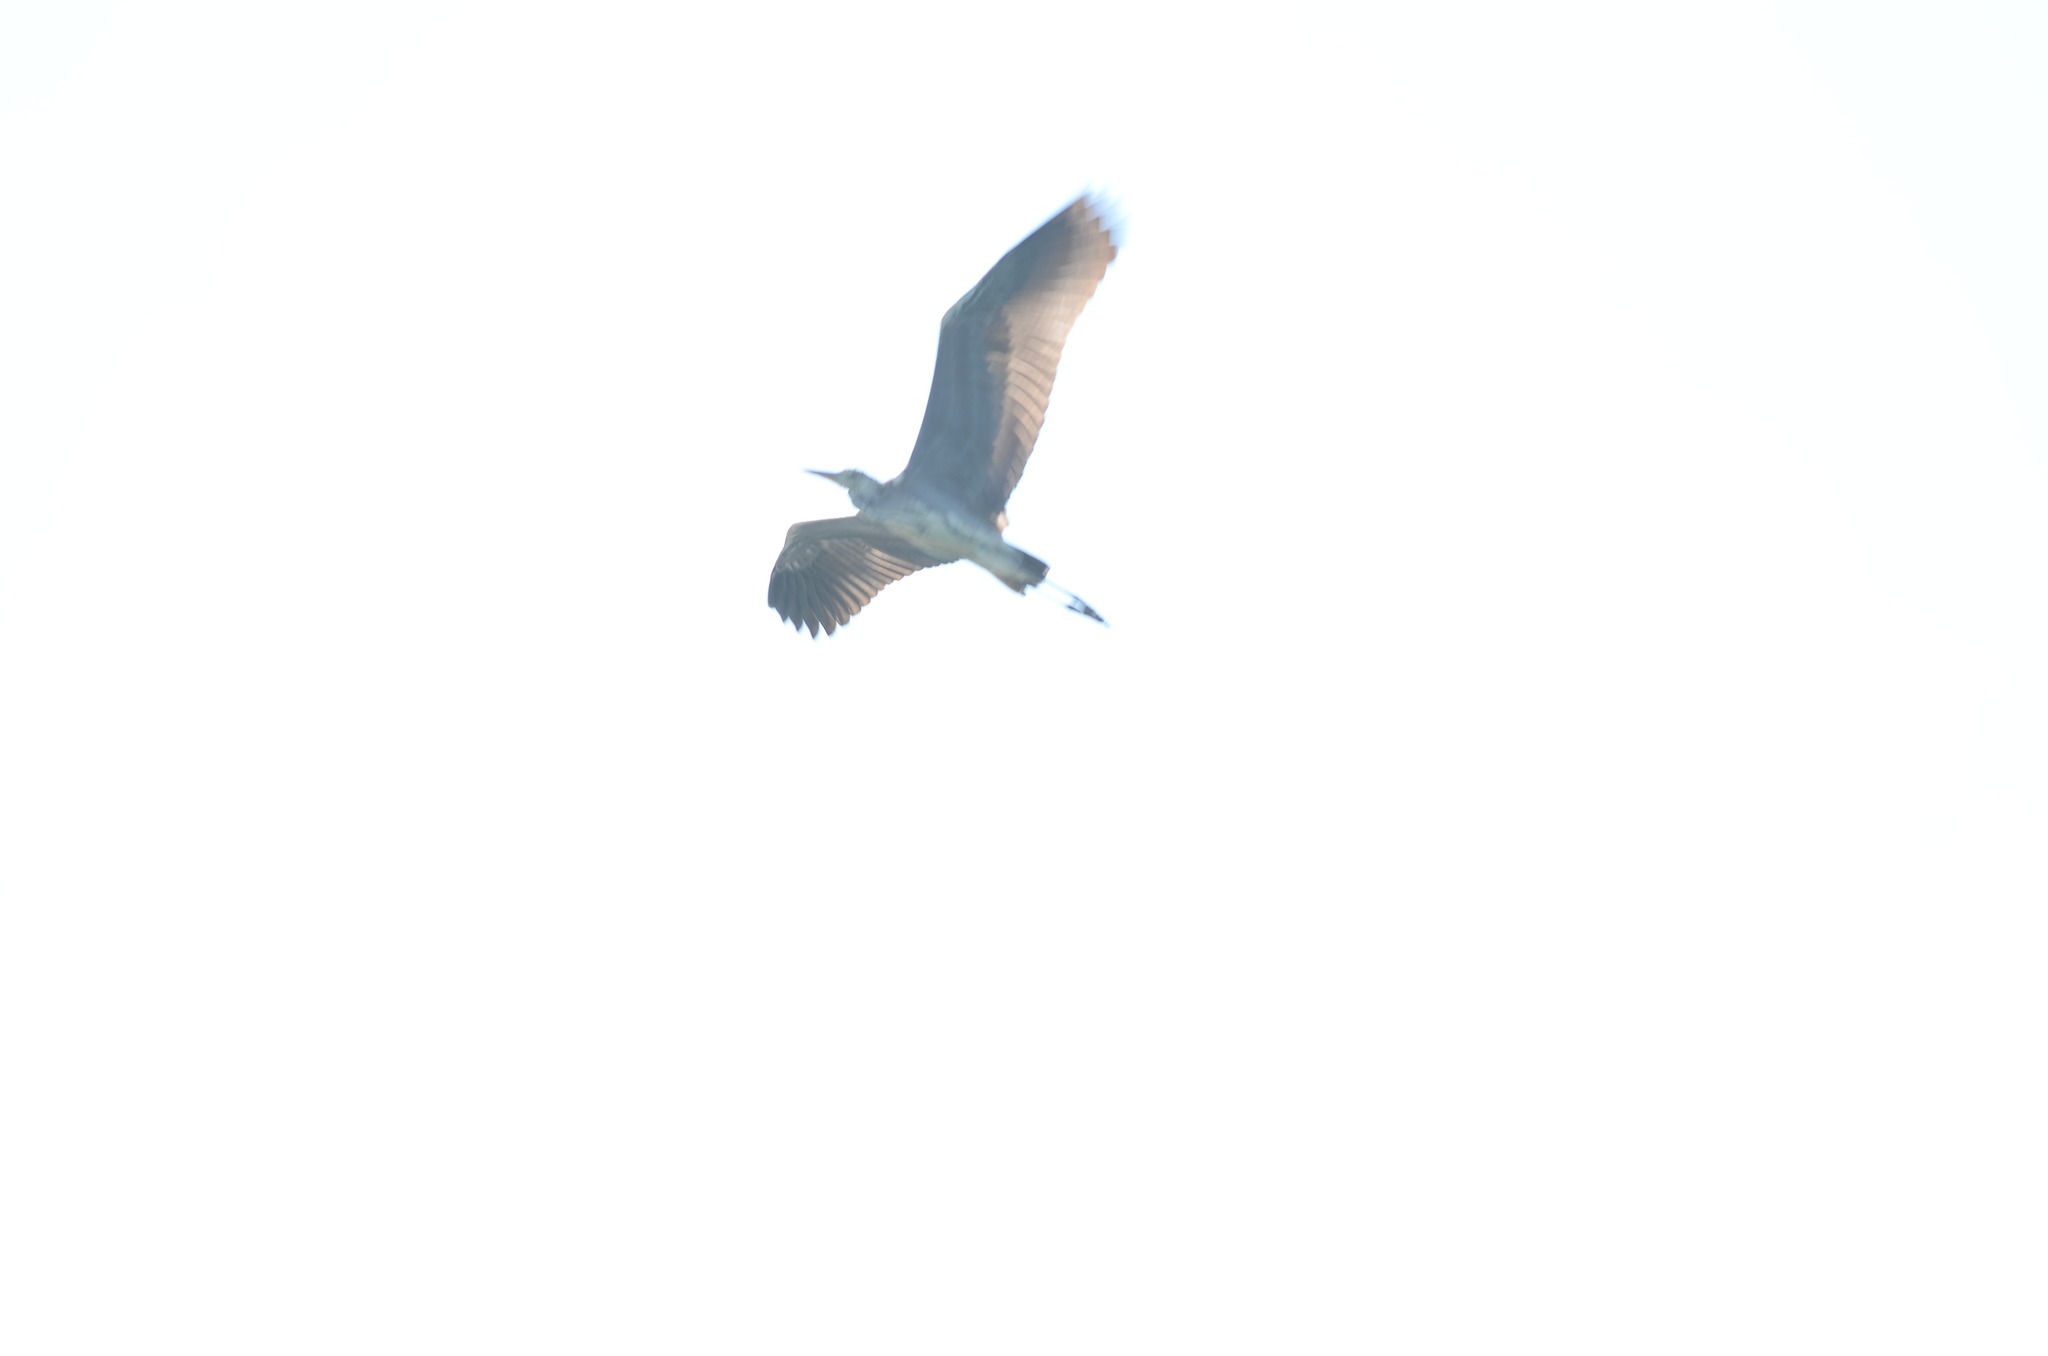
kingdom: Animalia
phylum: Chordata
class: Aves
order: Pelecaniformes
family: Ardeidae
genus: Ardea
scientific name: Ardea cinerea
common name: Grey heron
